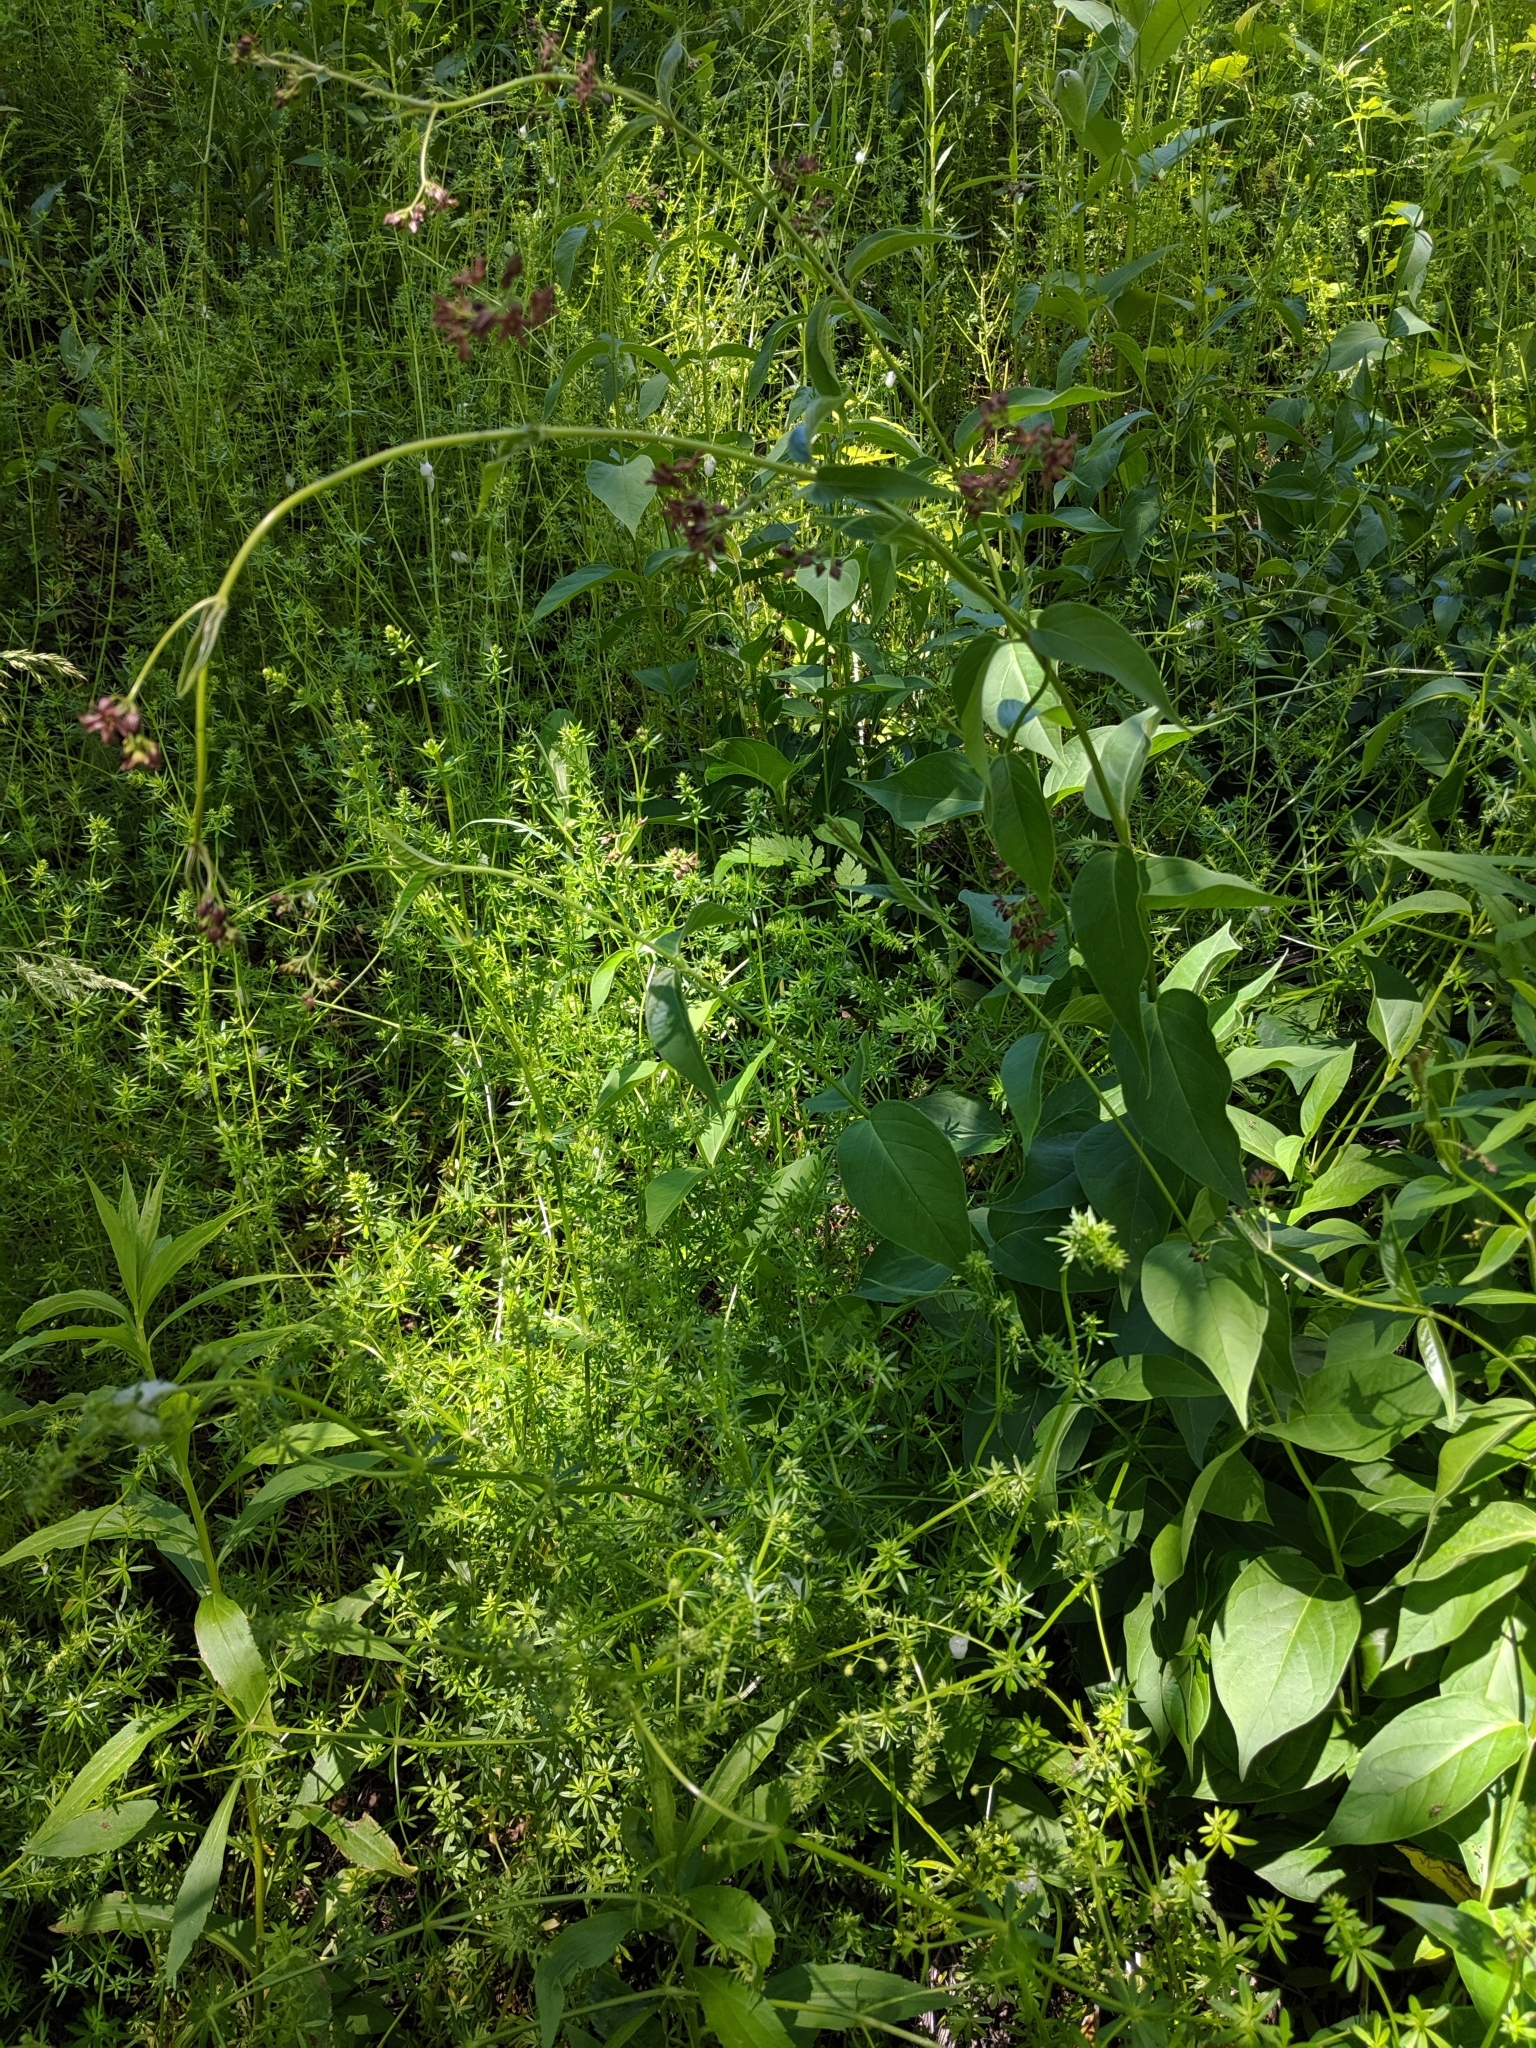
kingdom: Plantae
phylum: Tracheophyta
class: Magnoliopsida
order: Gentianales
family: Apocynaceae
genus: Vincetoxicum
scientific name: Vincetoxicum rossicum
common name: Dog-strangling vine
